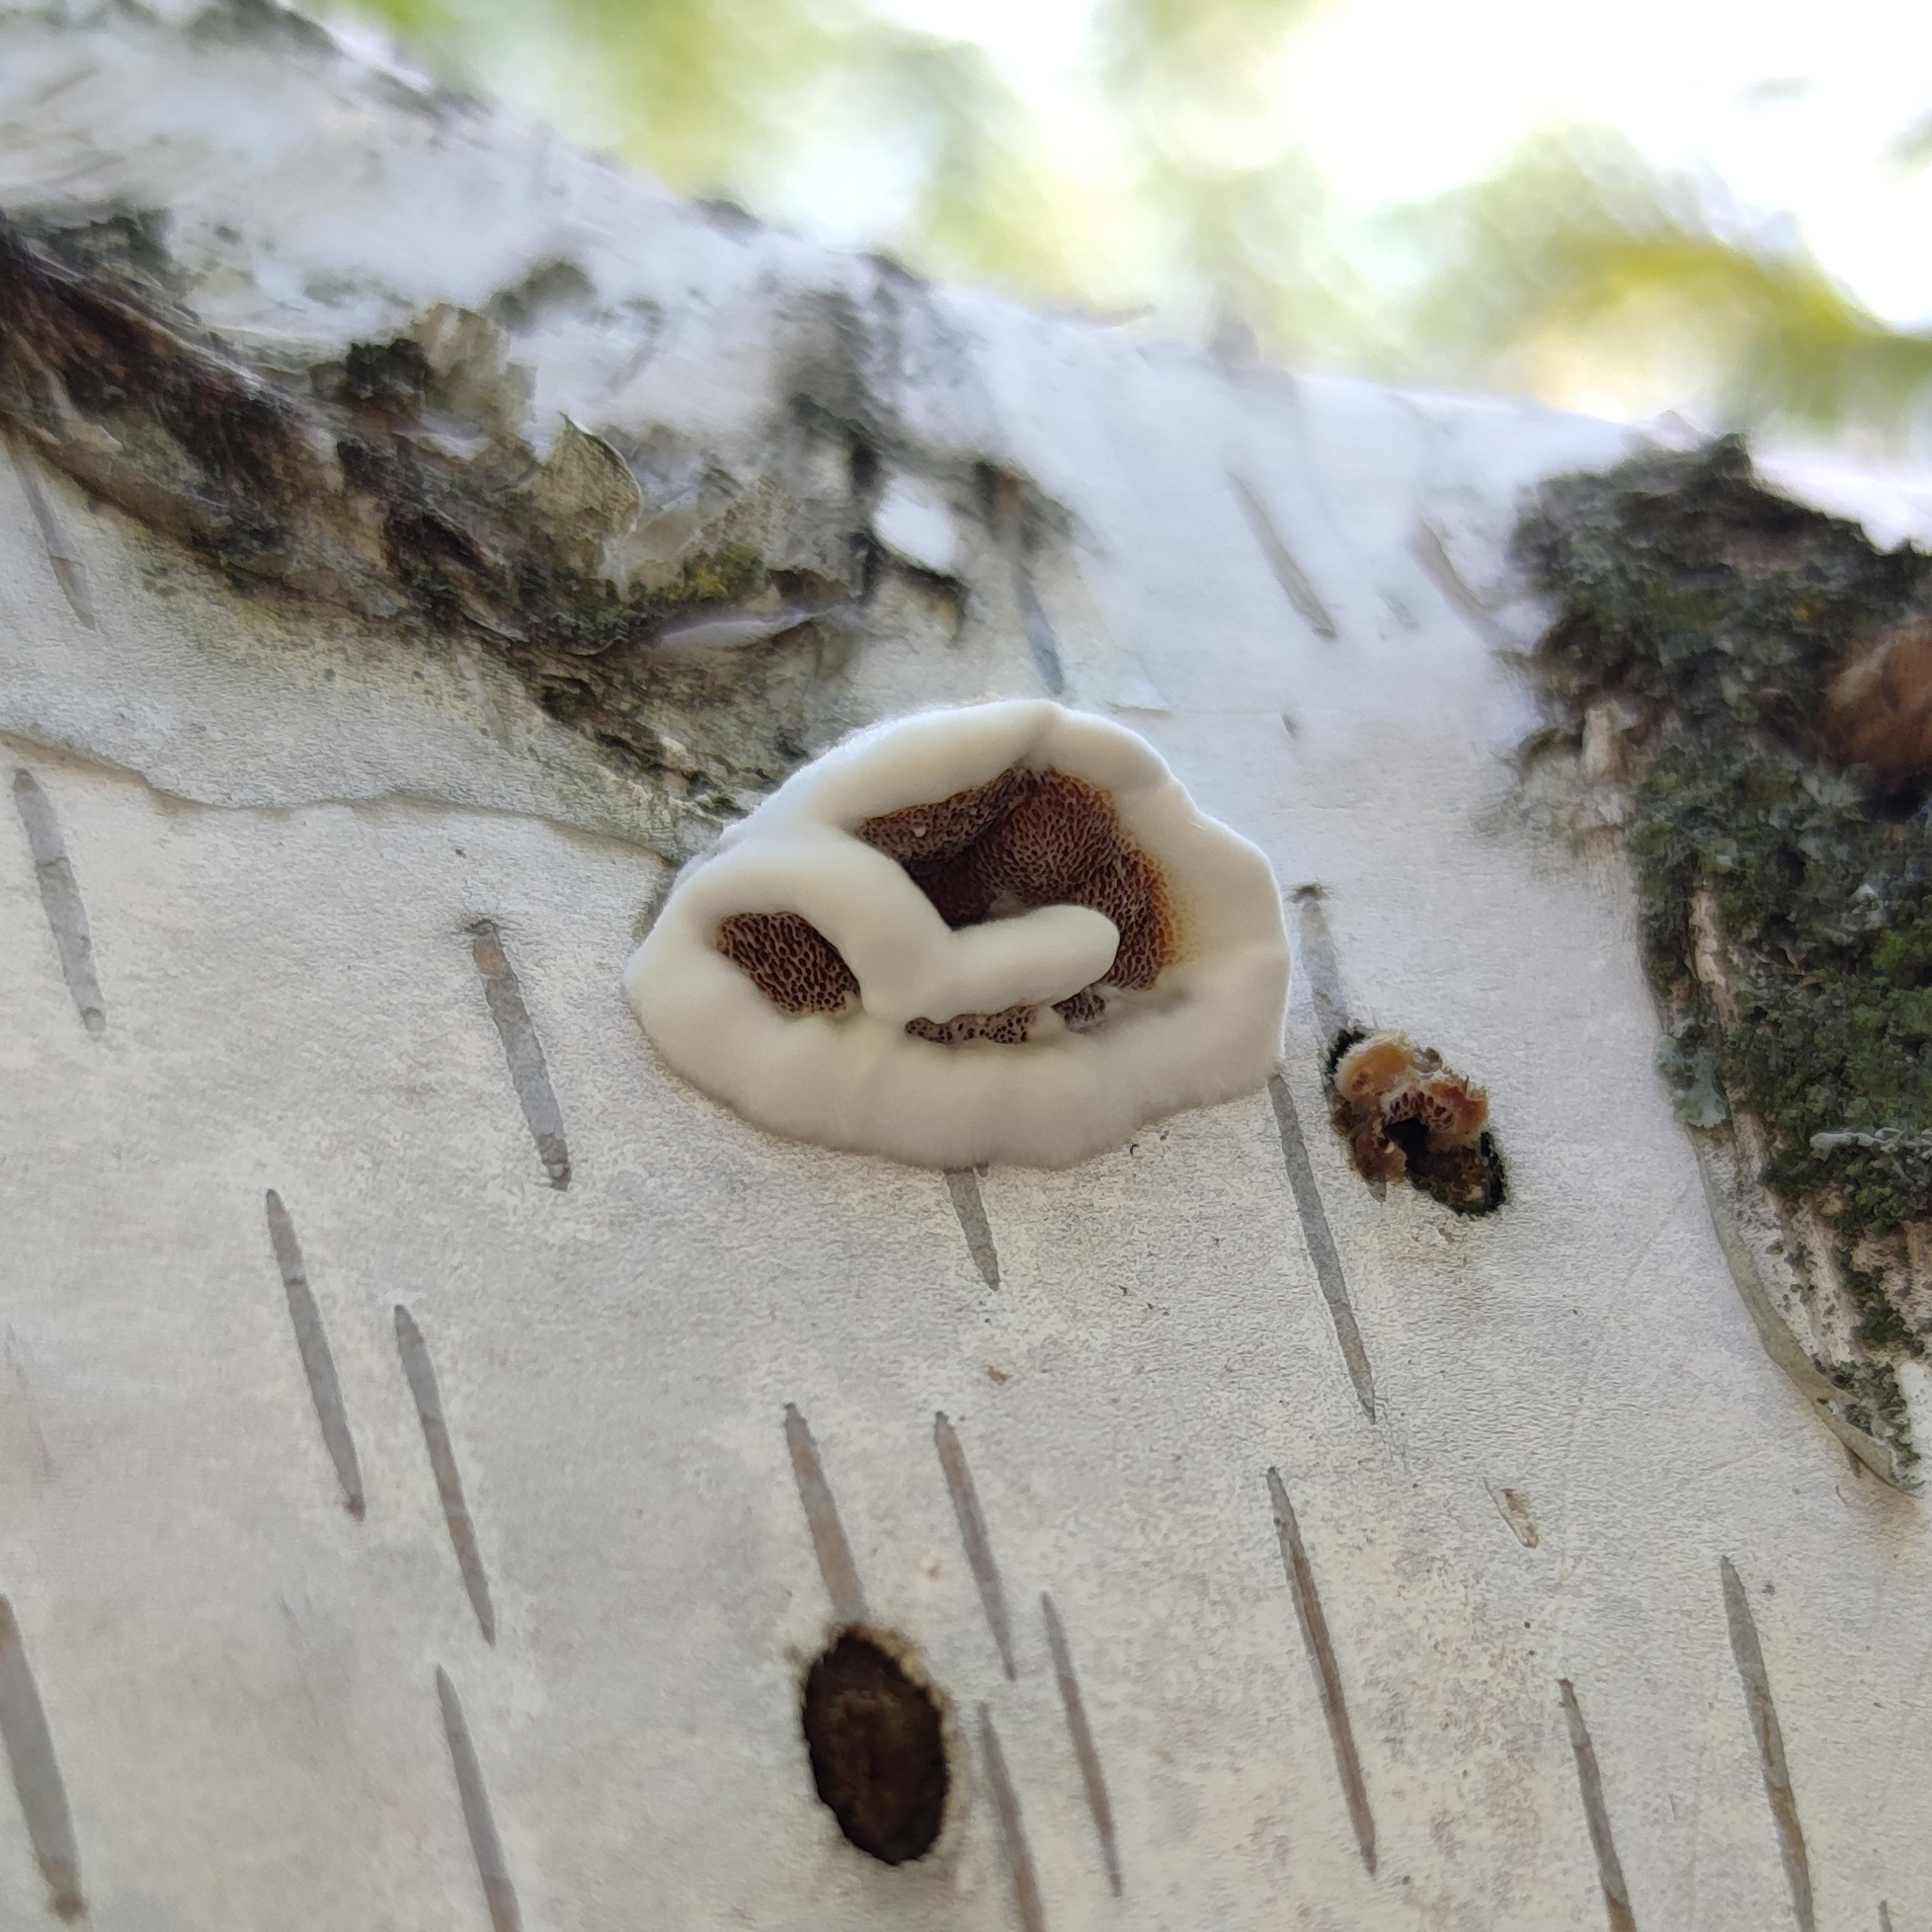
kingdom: Fungi
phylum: Basidiomycota
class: Agaricomycetes
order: Polyporales
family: Irpicaceae
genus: Vitreoporus
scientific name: Vitreoporus dichrous
